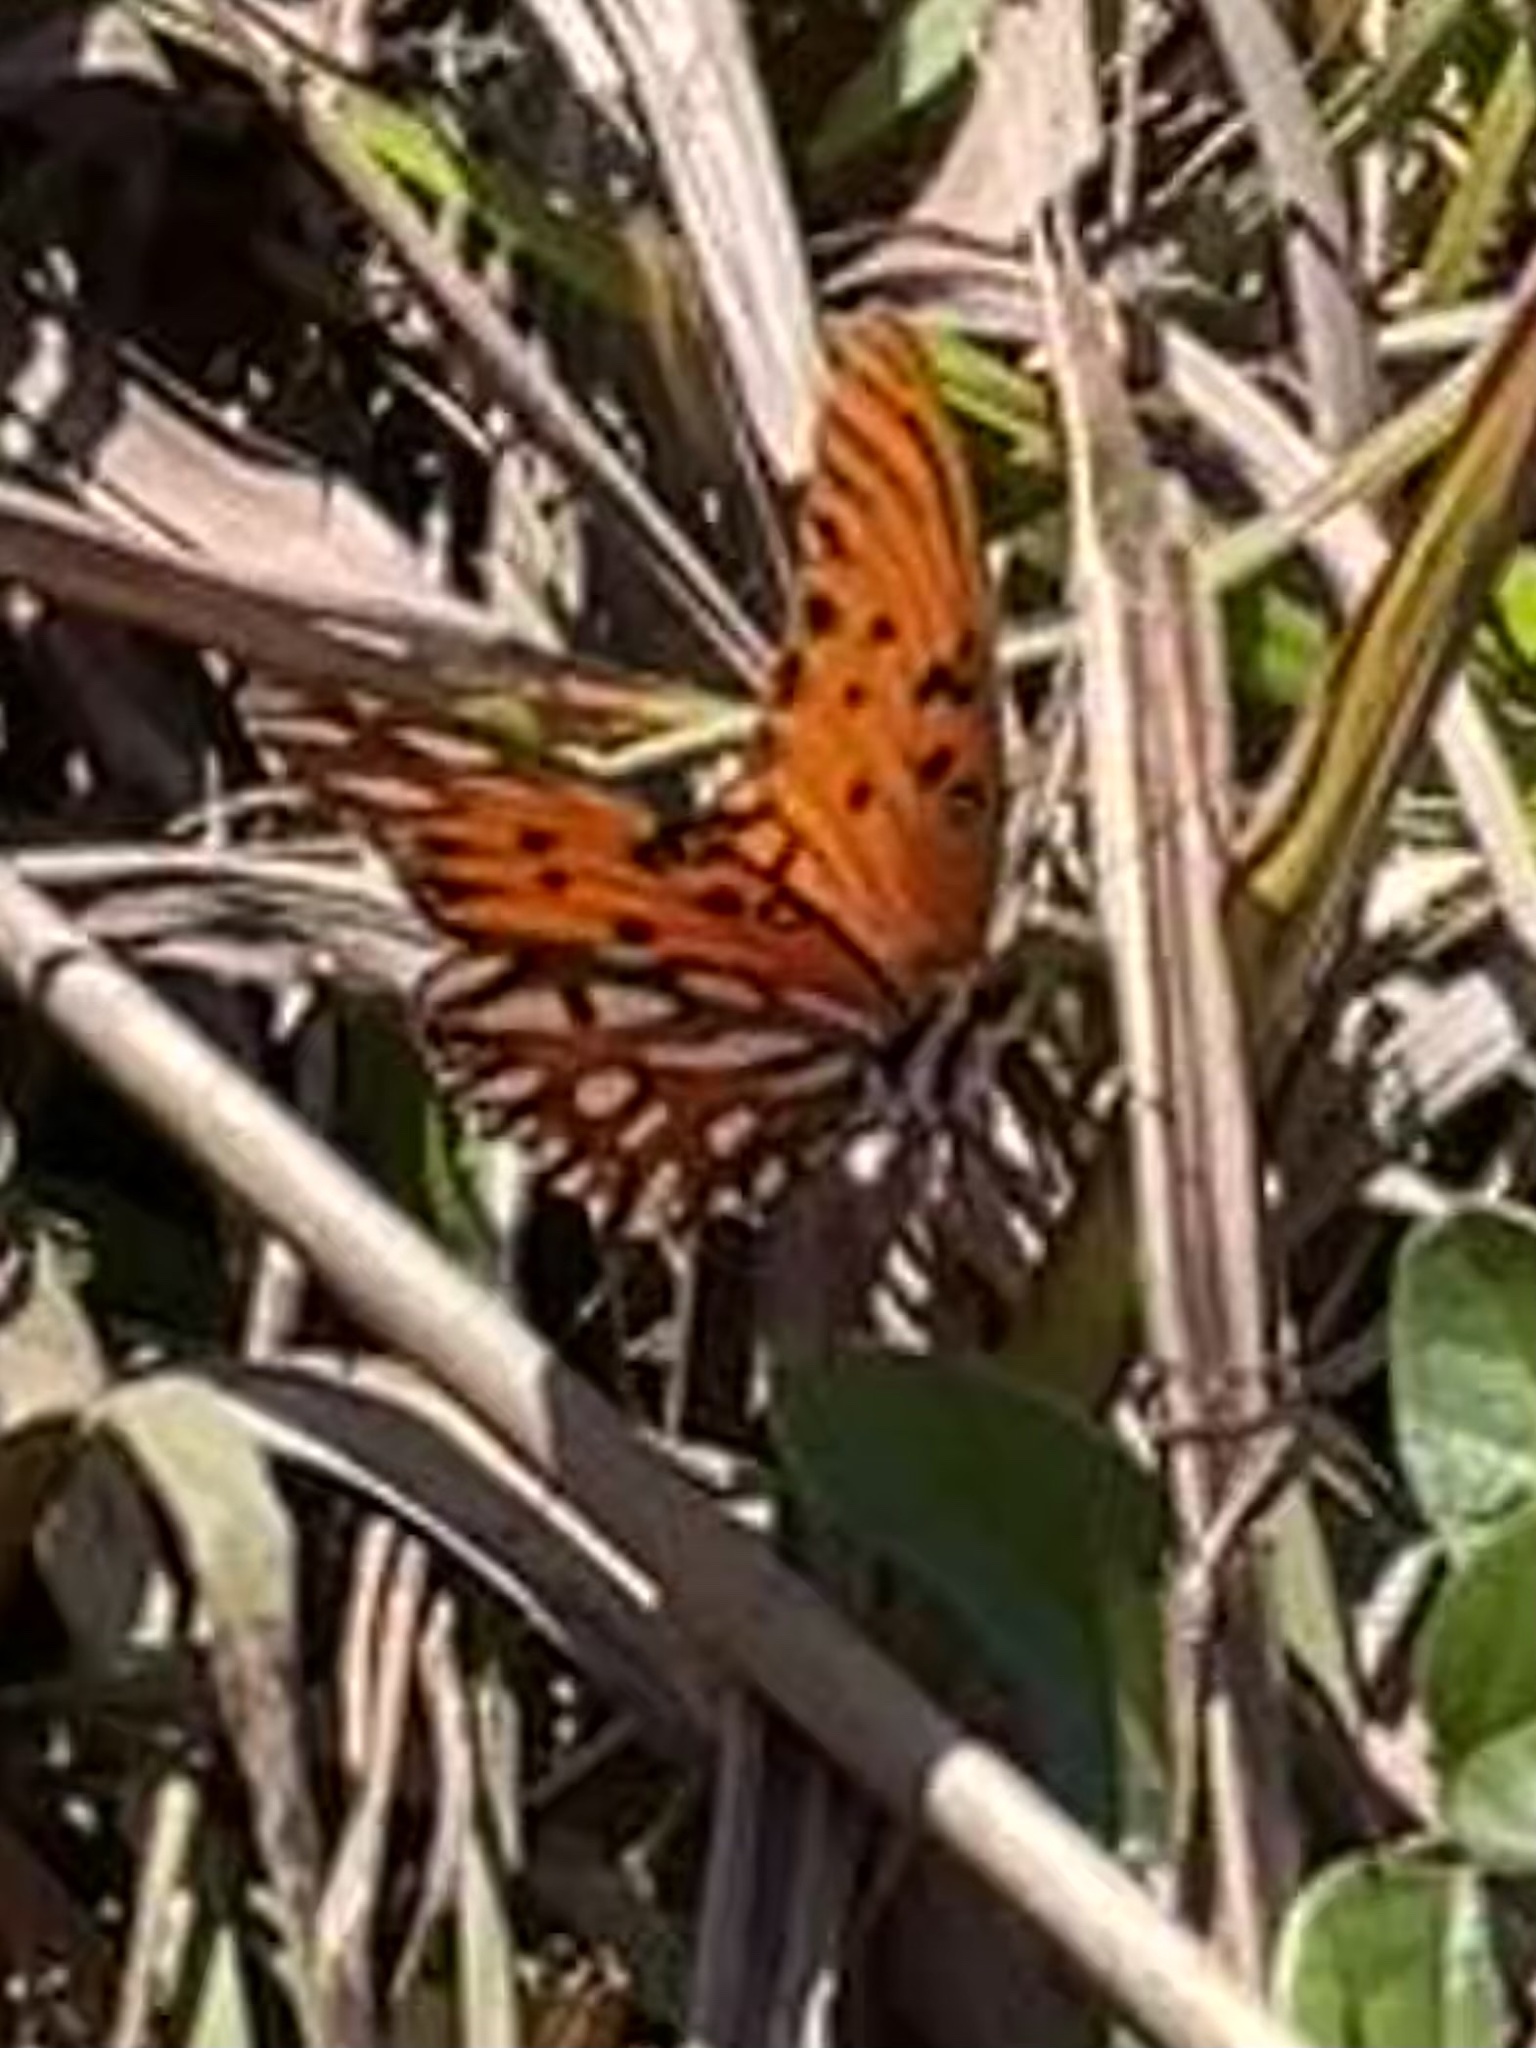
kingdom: Animalia
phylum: Arthropoda
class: Insecta
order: Lepidoptera
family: Nymphalidae
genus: Dione
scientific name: Dione vanillae
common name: Gulf fritillary
